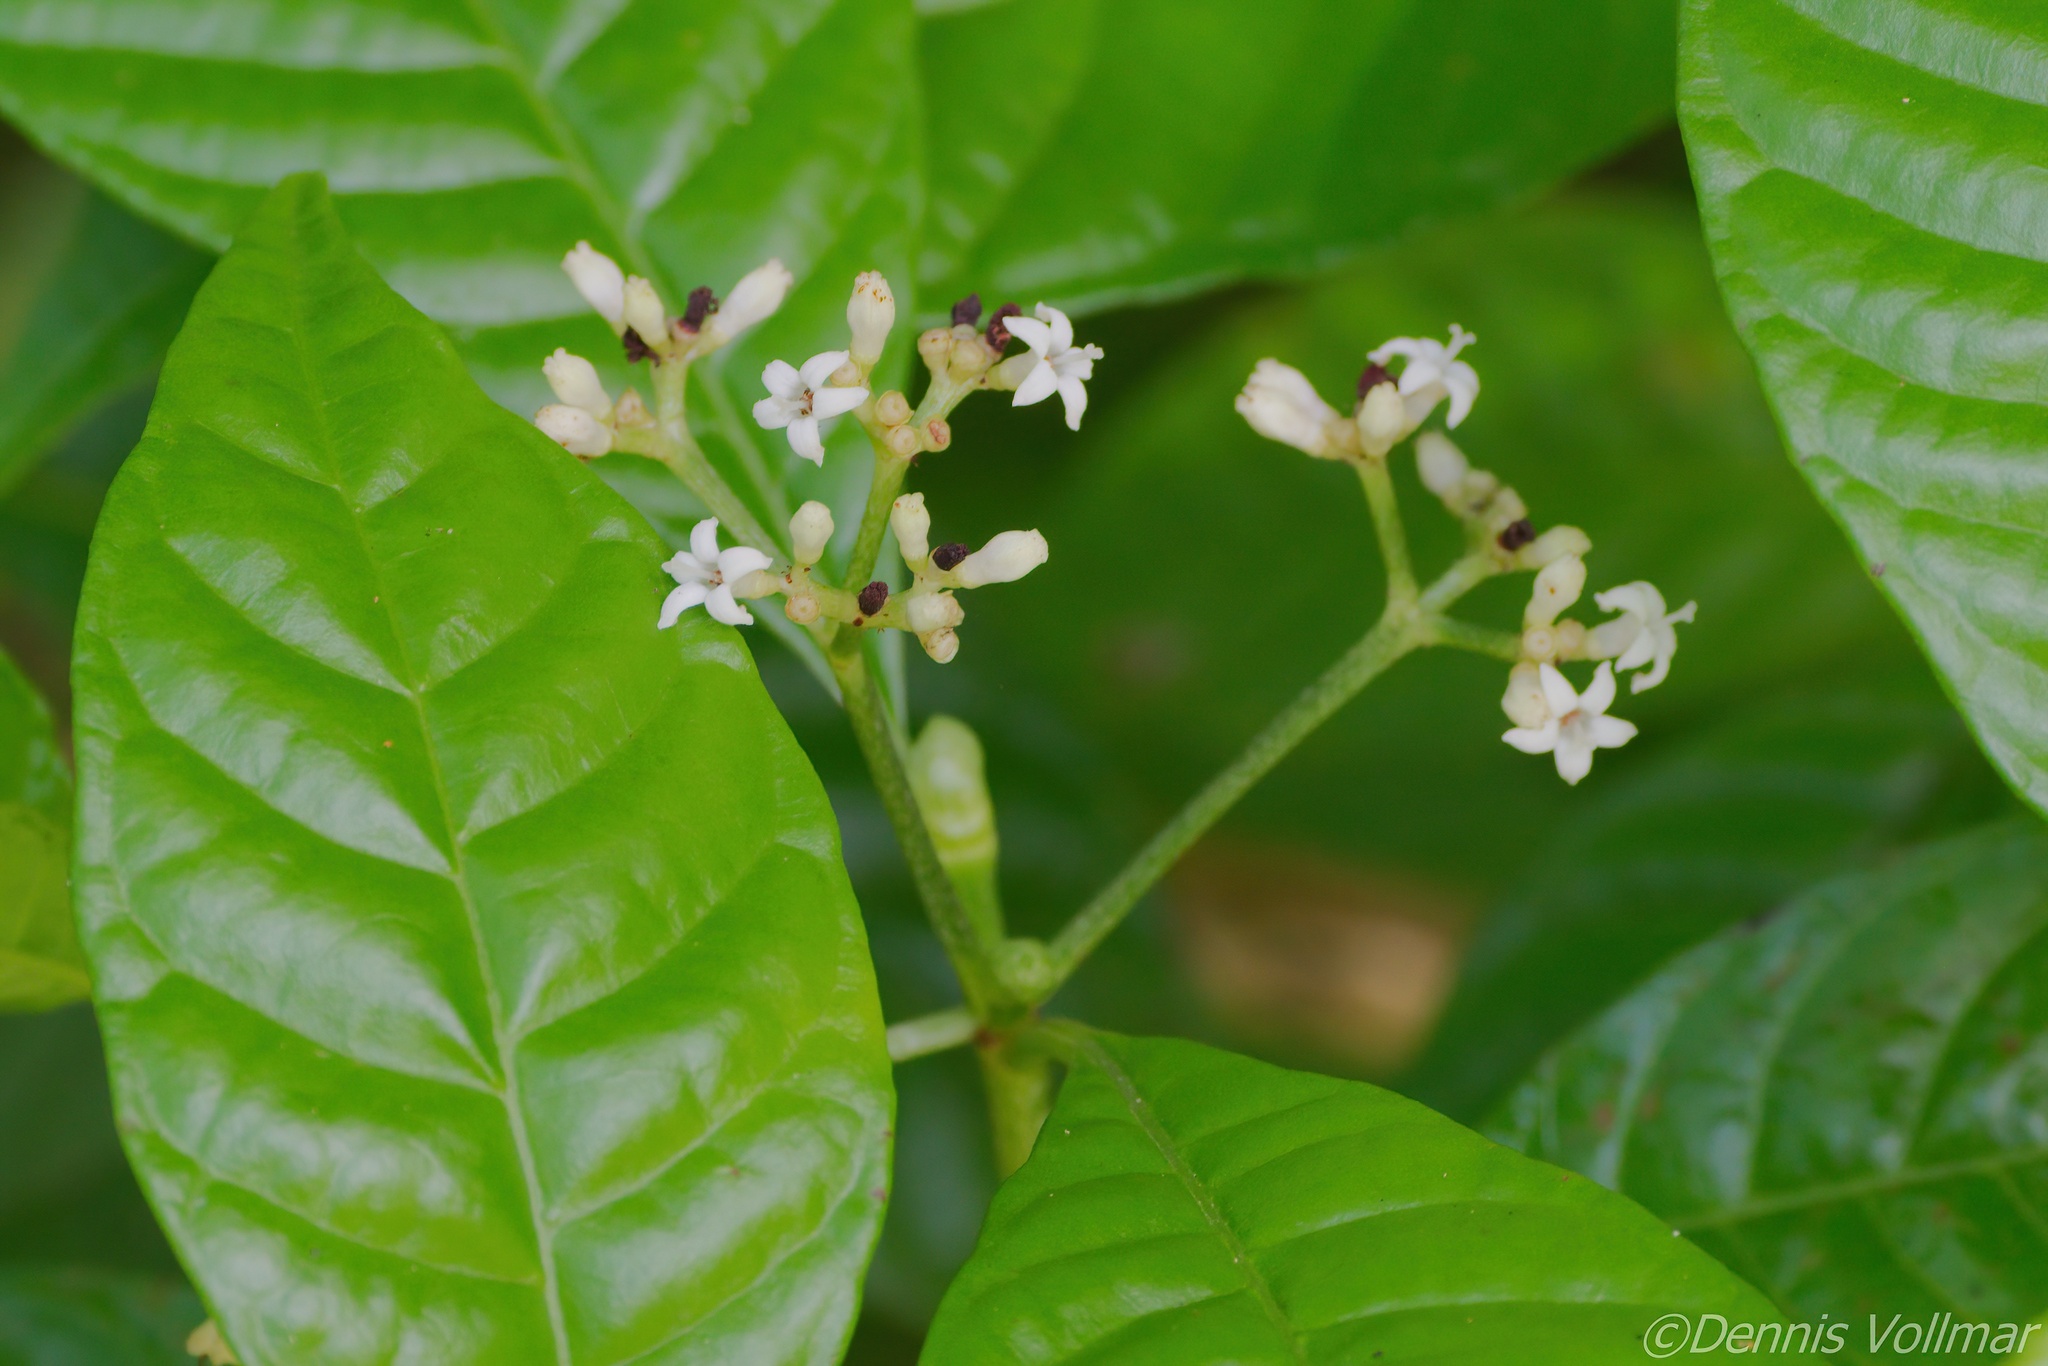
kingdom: Plantae
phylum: Tracheophyta
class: Magnoliopsida
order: Gentianales
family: Rubiaceae
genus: Psychotria
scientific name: Psychotria nervosa
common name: Bastard cankerberry
